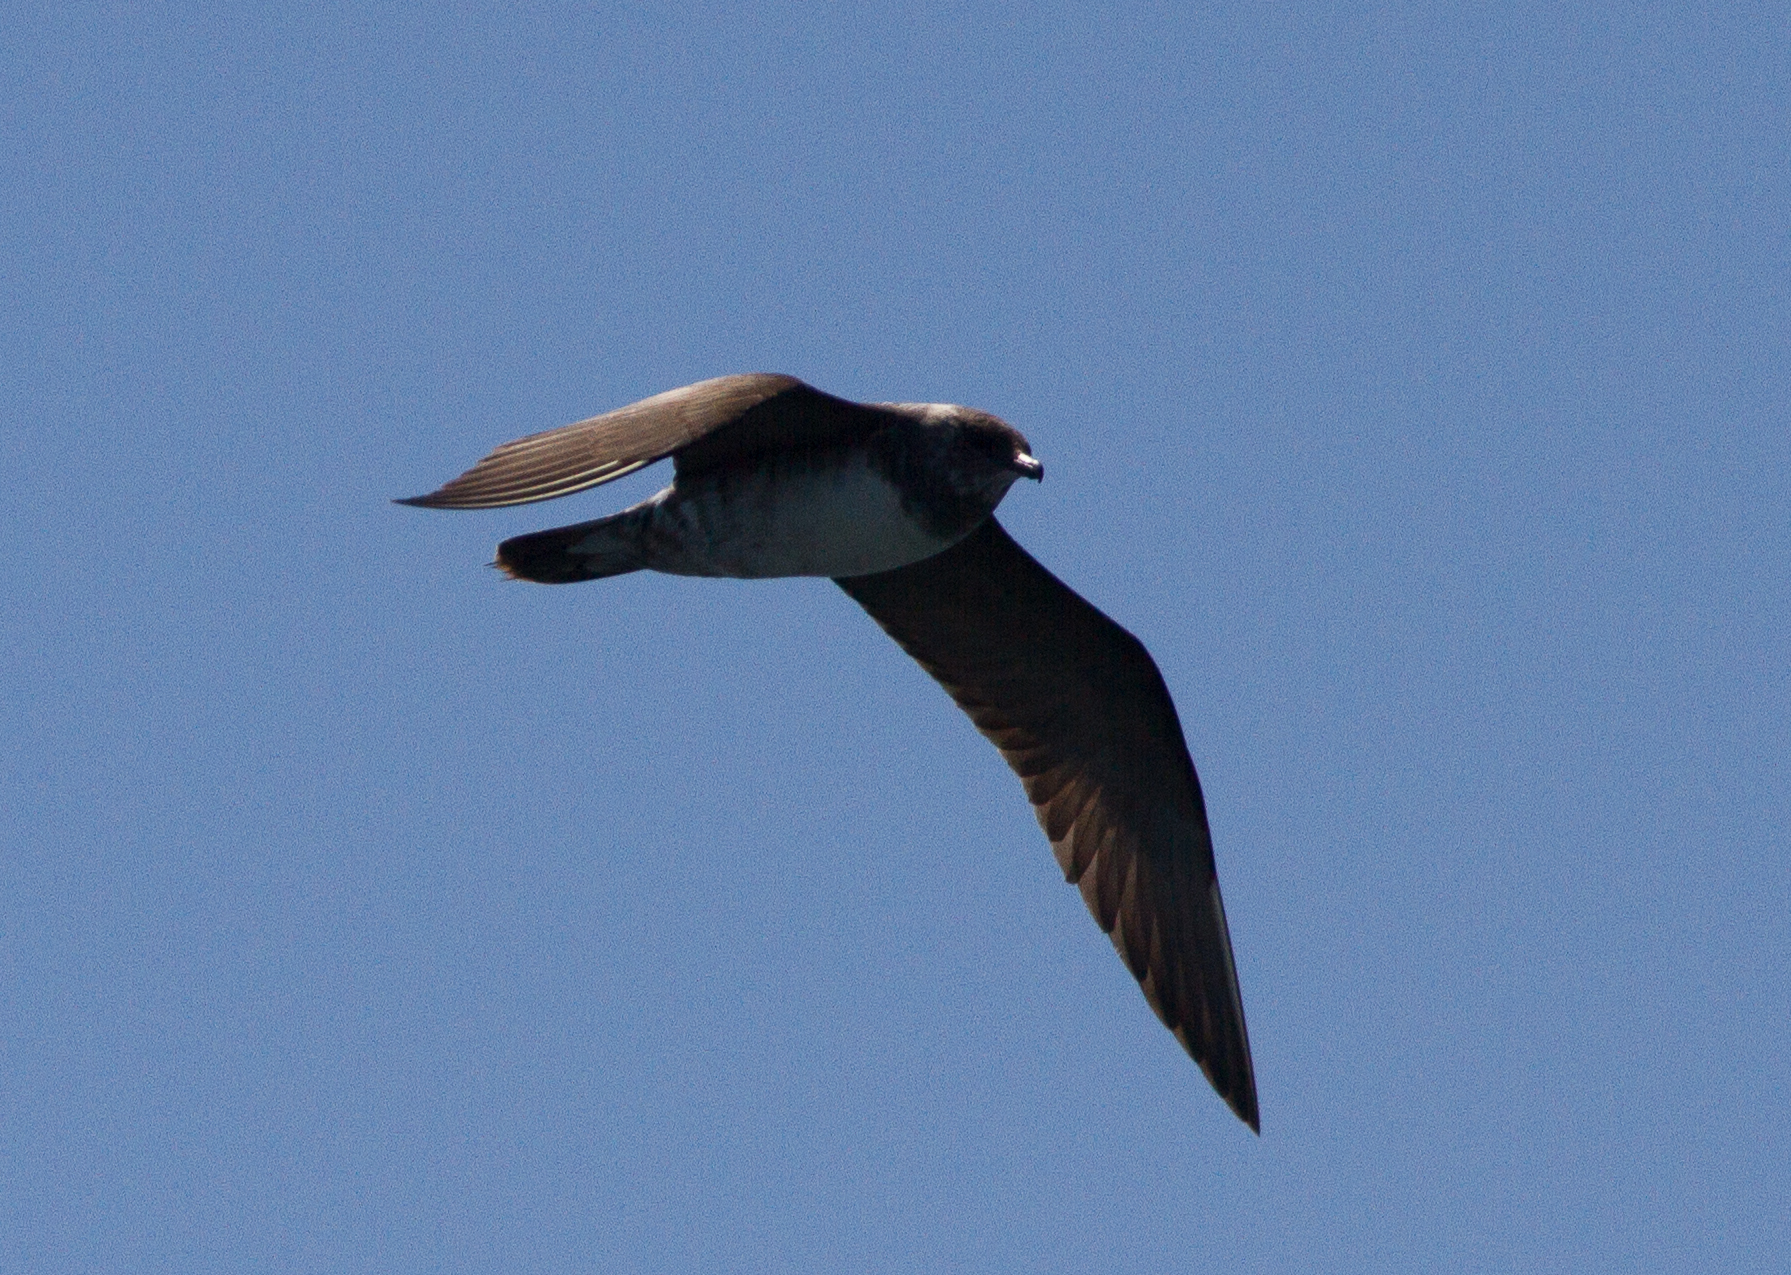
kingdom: Animalia
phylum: Chordata
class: Aves
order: Charadriiformes
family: Stercorariidae
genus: Stercorarius
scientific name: Stercorarius longicaudus
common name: Long-tailed jaeger
